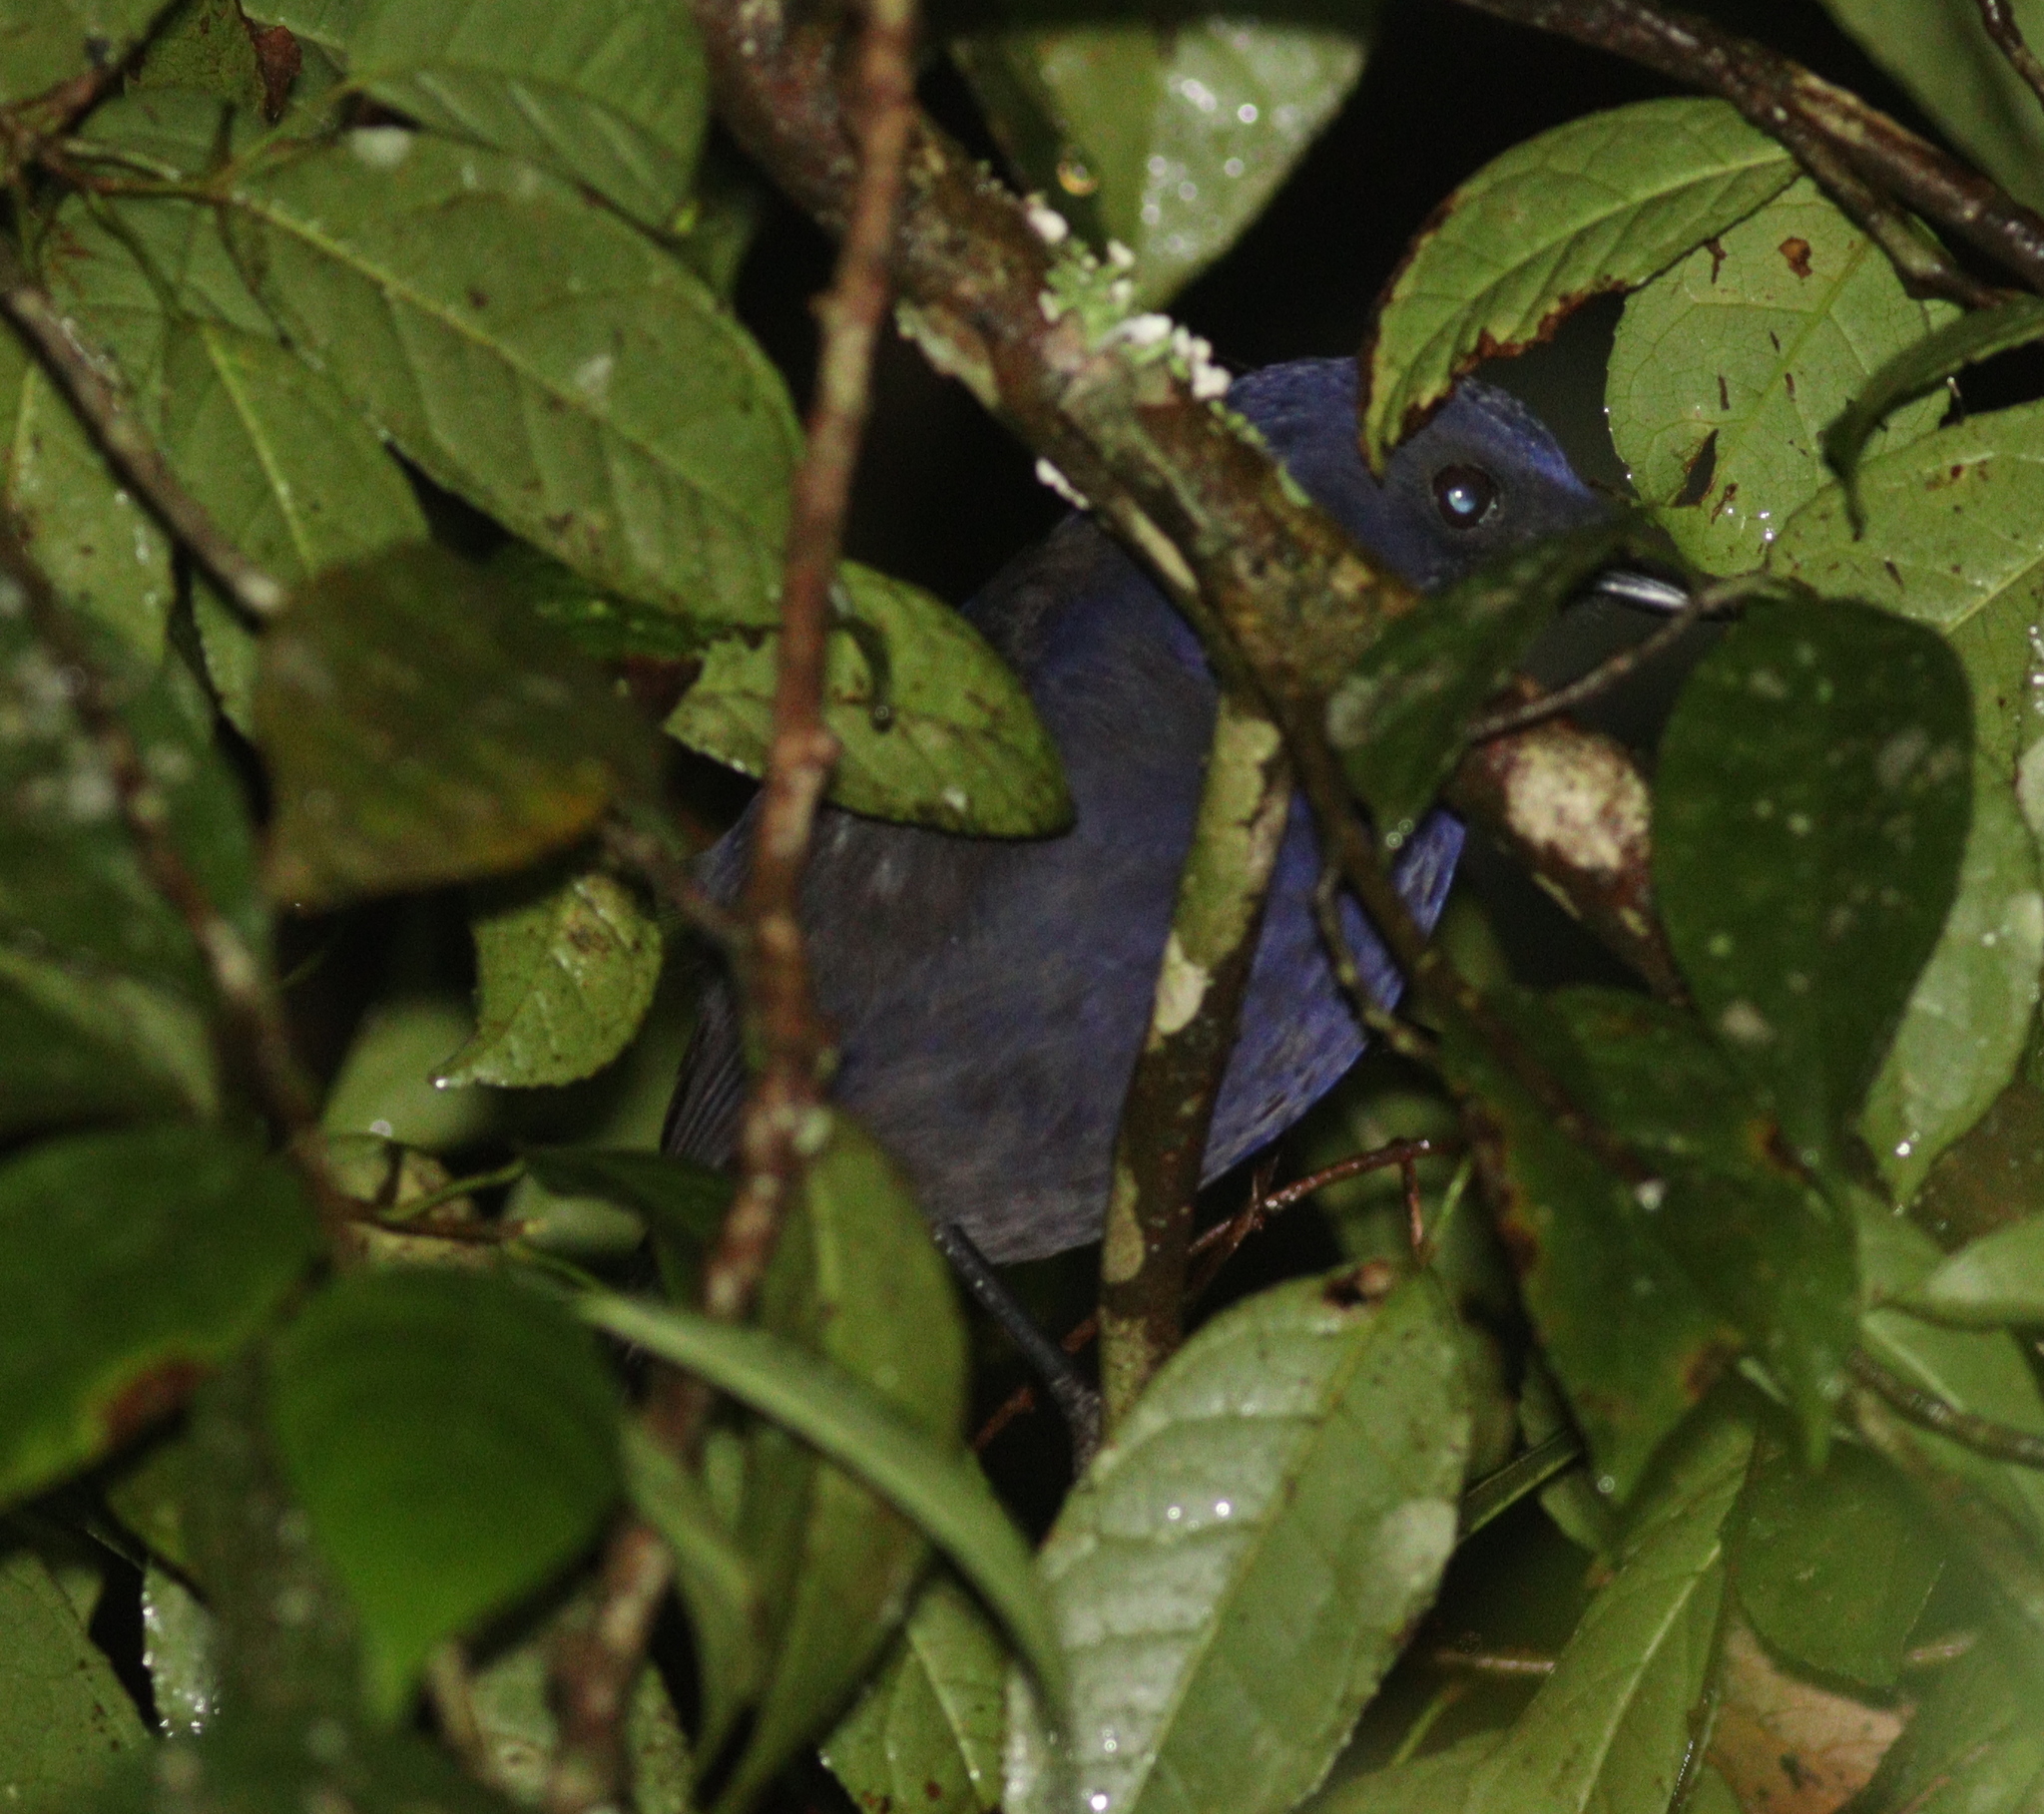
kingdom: Animalia
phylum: Chordata
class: Aves
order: Passeriformes
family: Muscicapidae
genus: Myophonus
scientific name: Myophonus glaucinus
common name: Javan whistling-thrush
